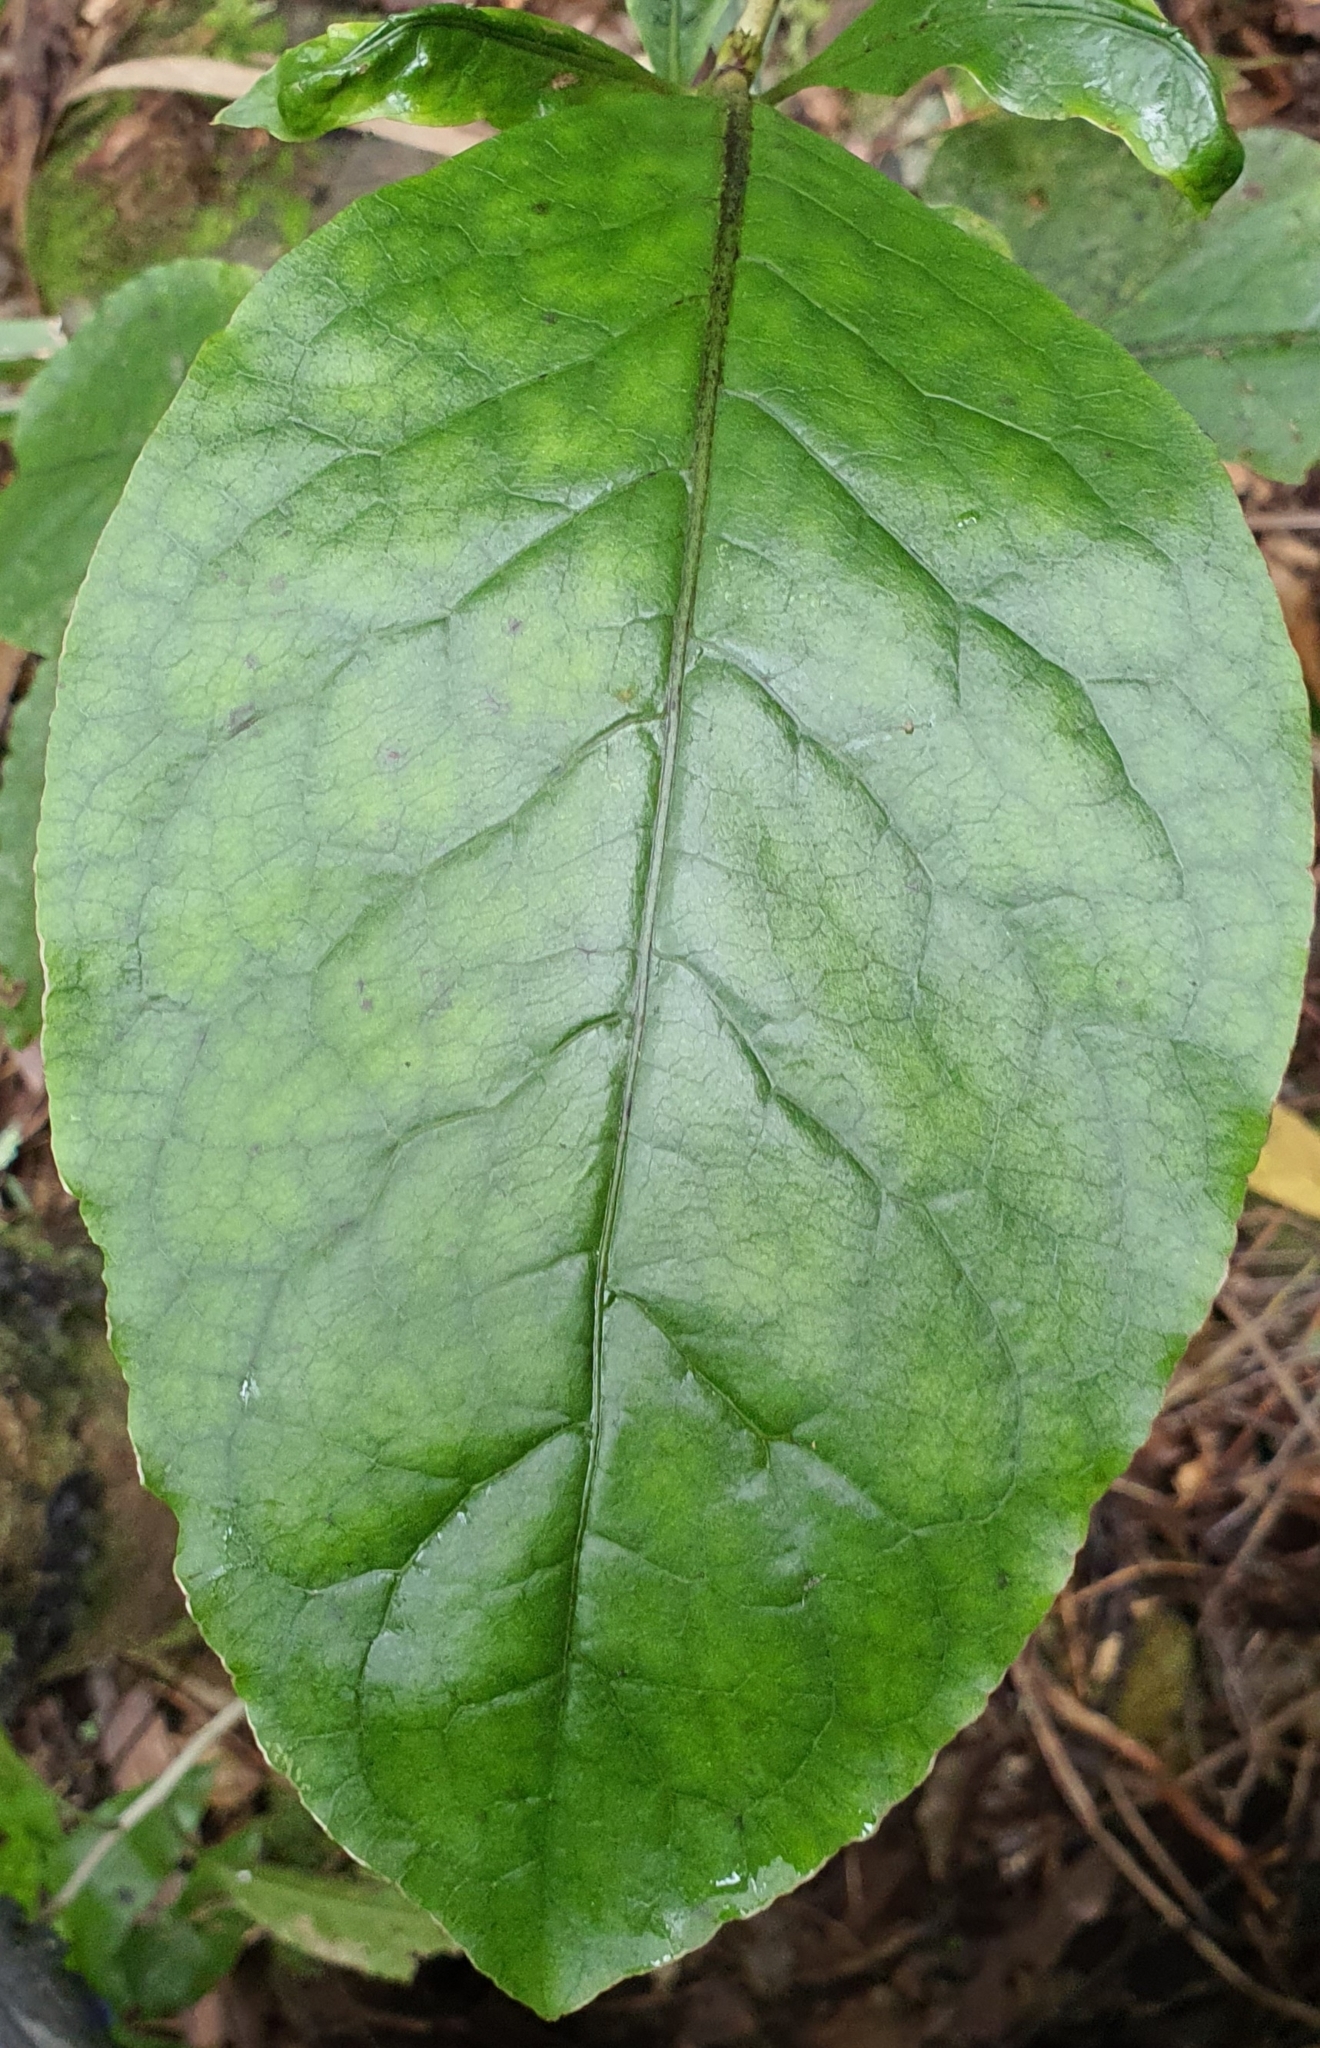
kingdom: Plantae
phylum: Tracheophyta
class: Magnoliopsida
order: Gentianales
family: Rubiaceae
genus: Coprosma
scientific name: Coprosma autumnalis
